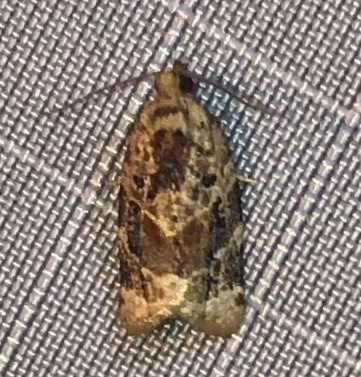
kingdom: Animalia
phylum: Arthropoda
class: Insecta
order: Lepidoptera
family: Tortricidae
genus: Argyrotaenia
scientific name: Argyrotaenia velutinana
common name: Red-banded leafroller moth
